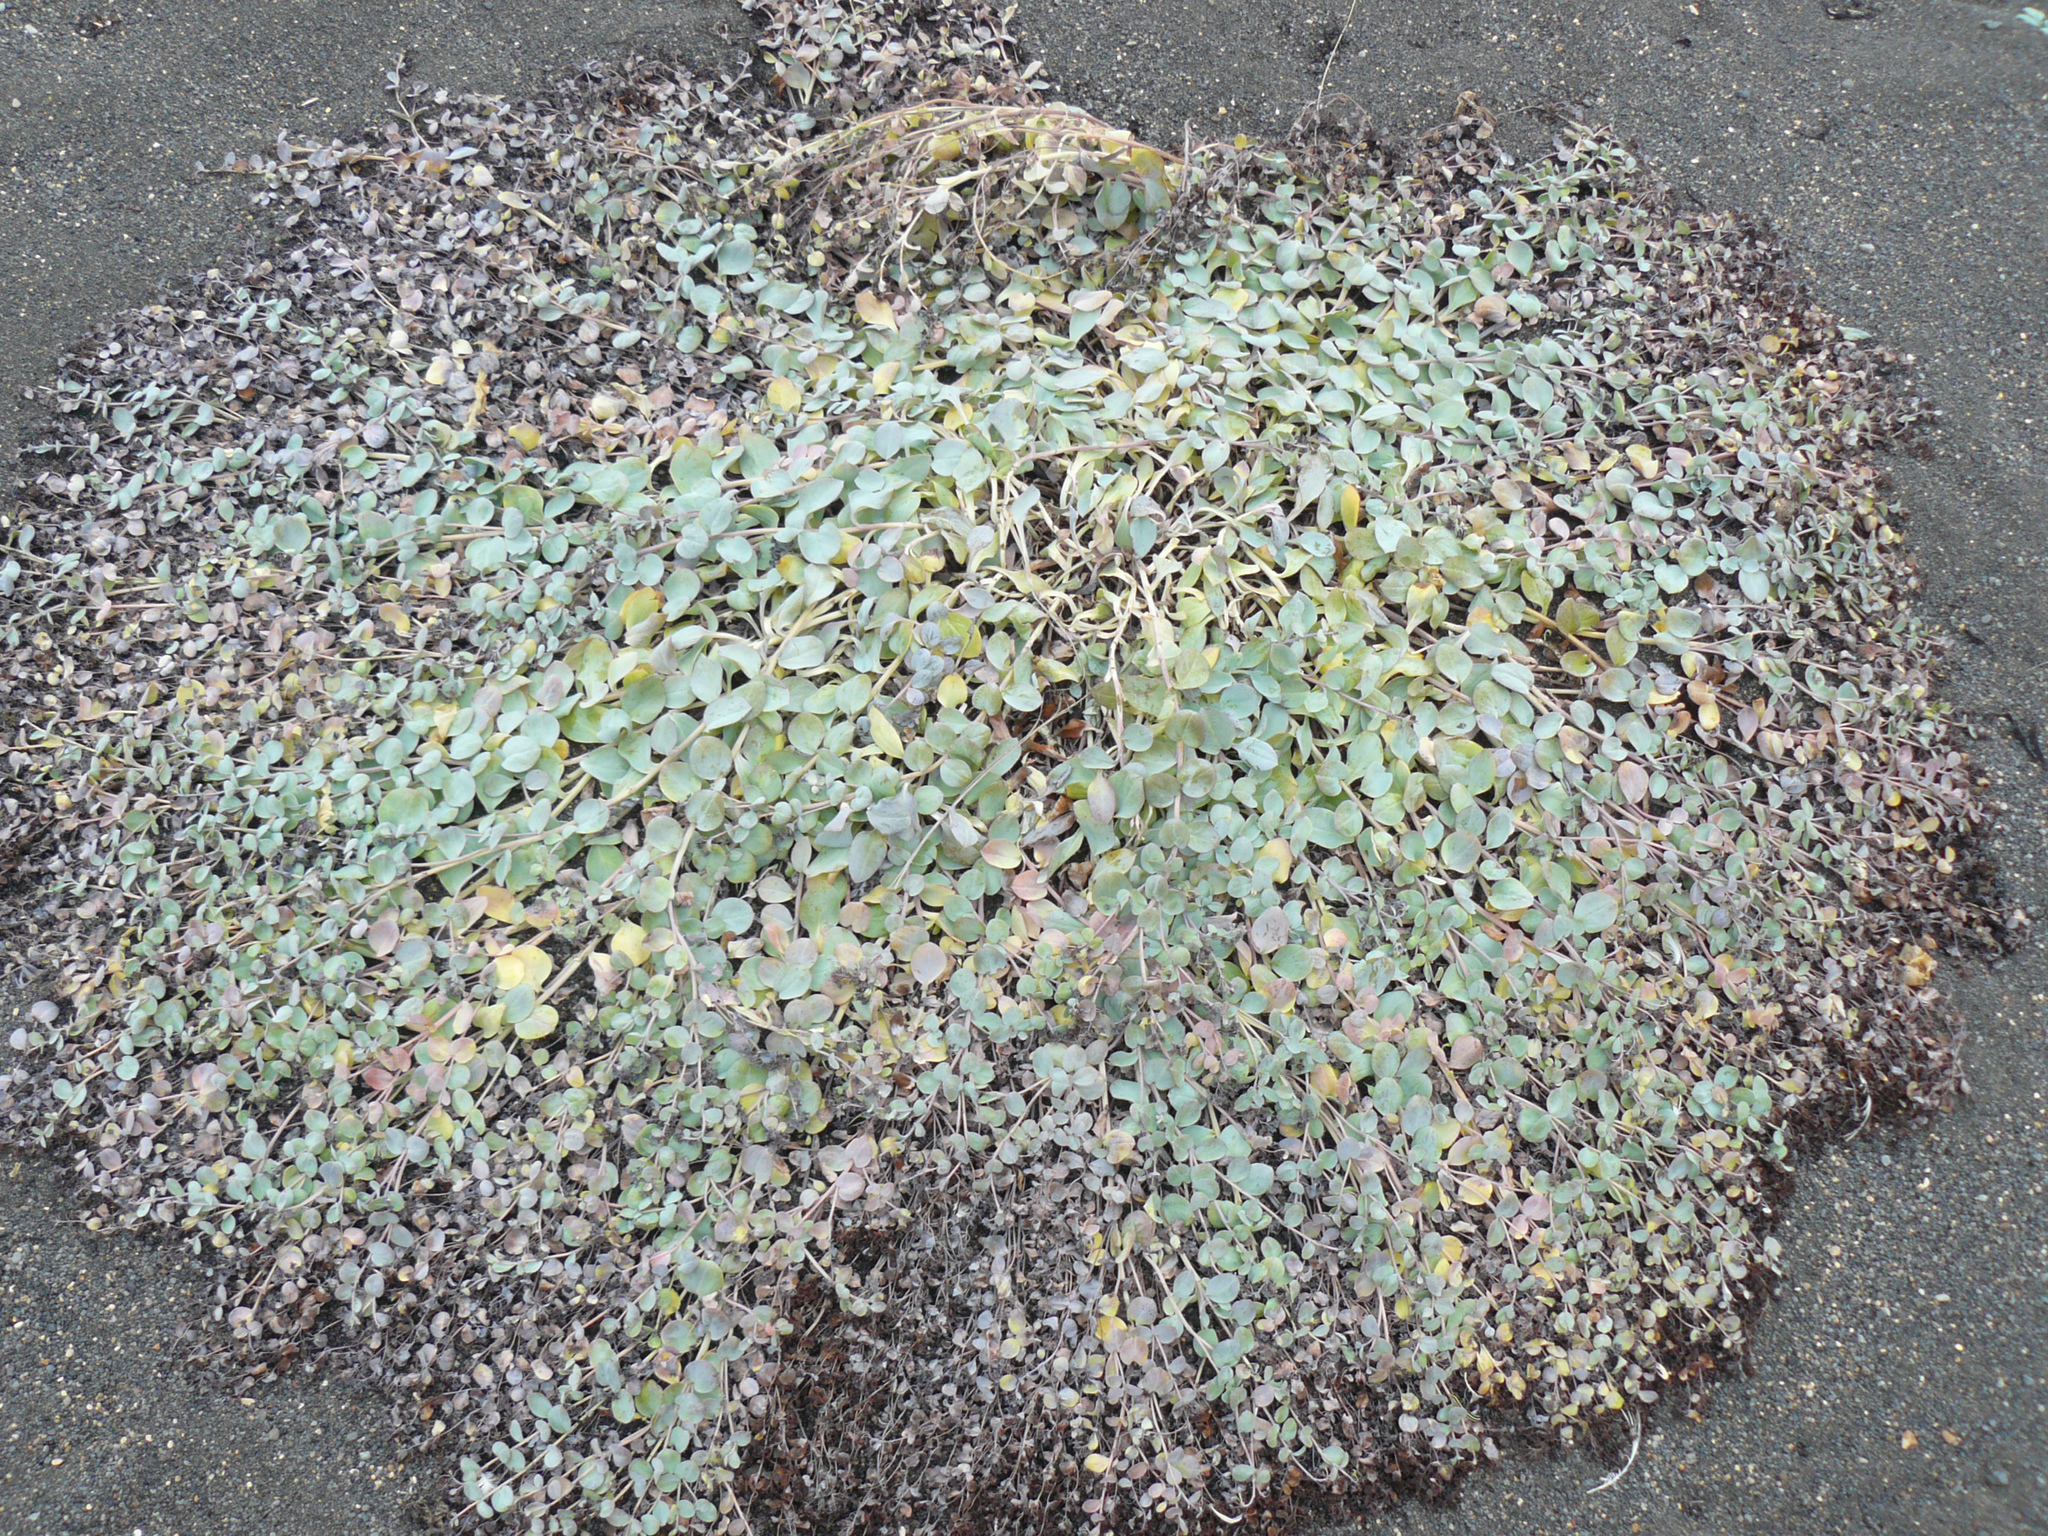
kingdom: Plantae
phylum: Tracheophyta
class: Magnoliopsida
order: Boraginales
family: Boraginaceae
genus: Mertensia
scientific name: Mertensia maritima
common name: Oysterplant
